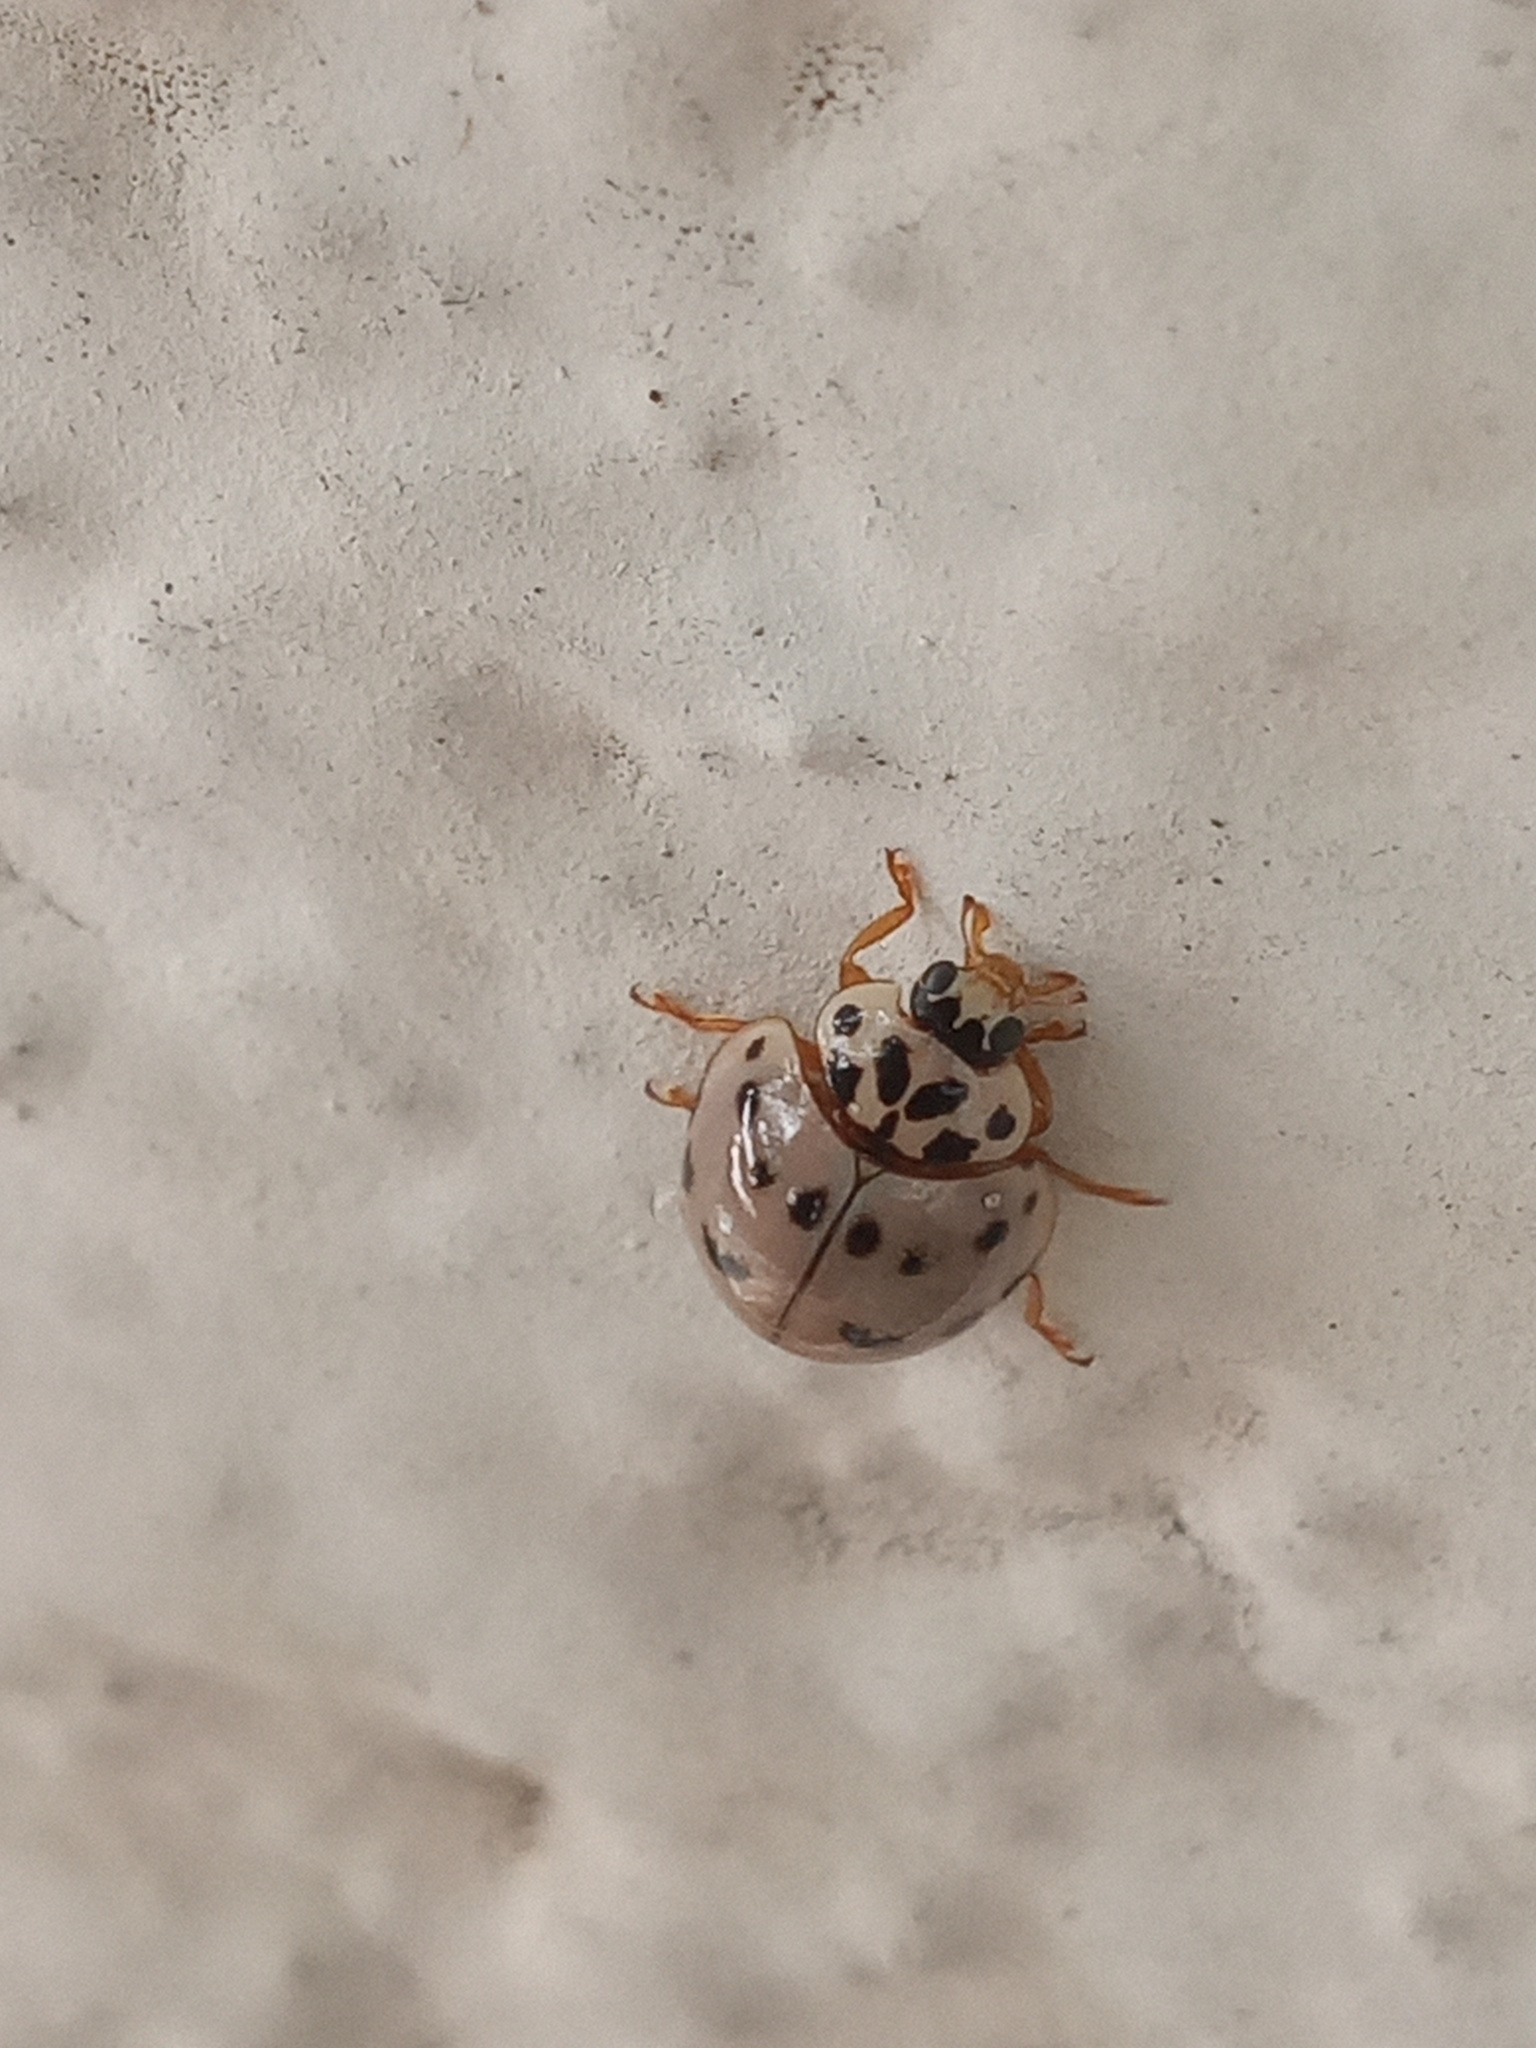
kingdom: Animalia
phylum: Arthropoda
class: Insecta
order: Coleoptera
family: Coccinellidae
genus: Olla
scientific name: Olla v-nigrum
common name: Ashy gray lady beetle
